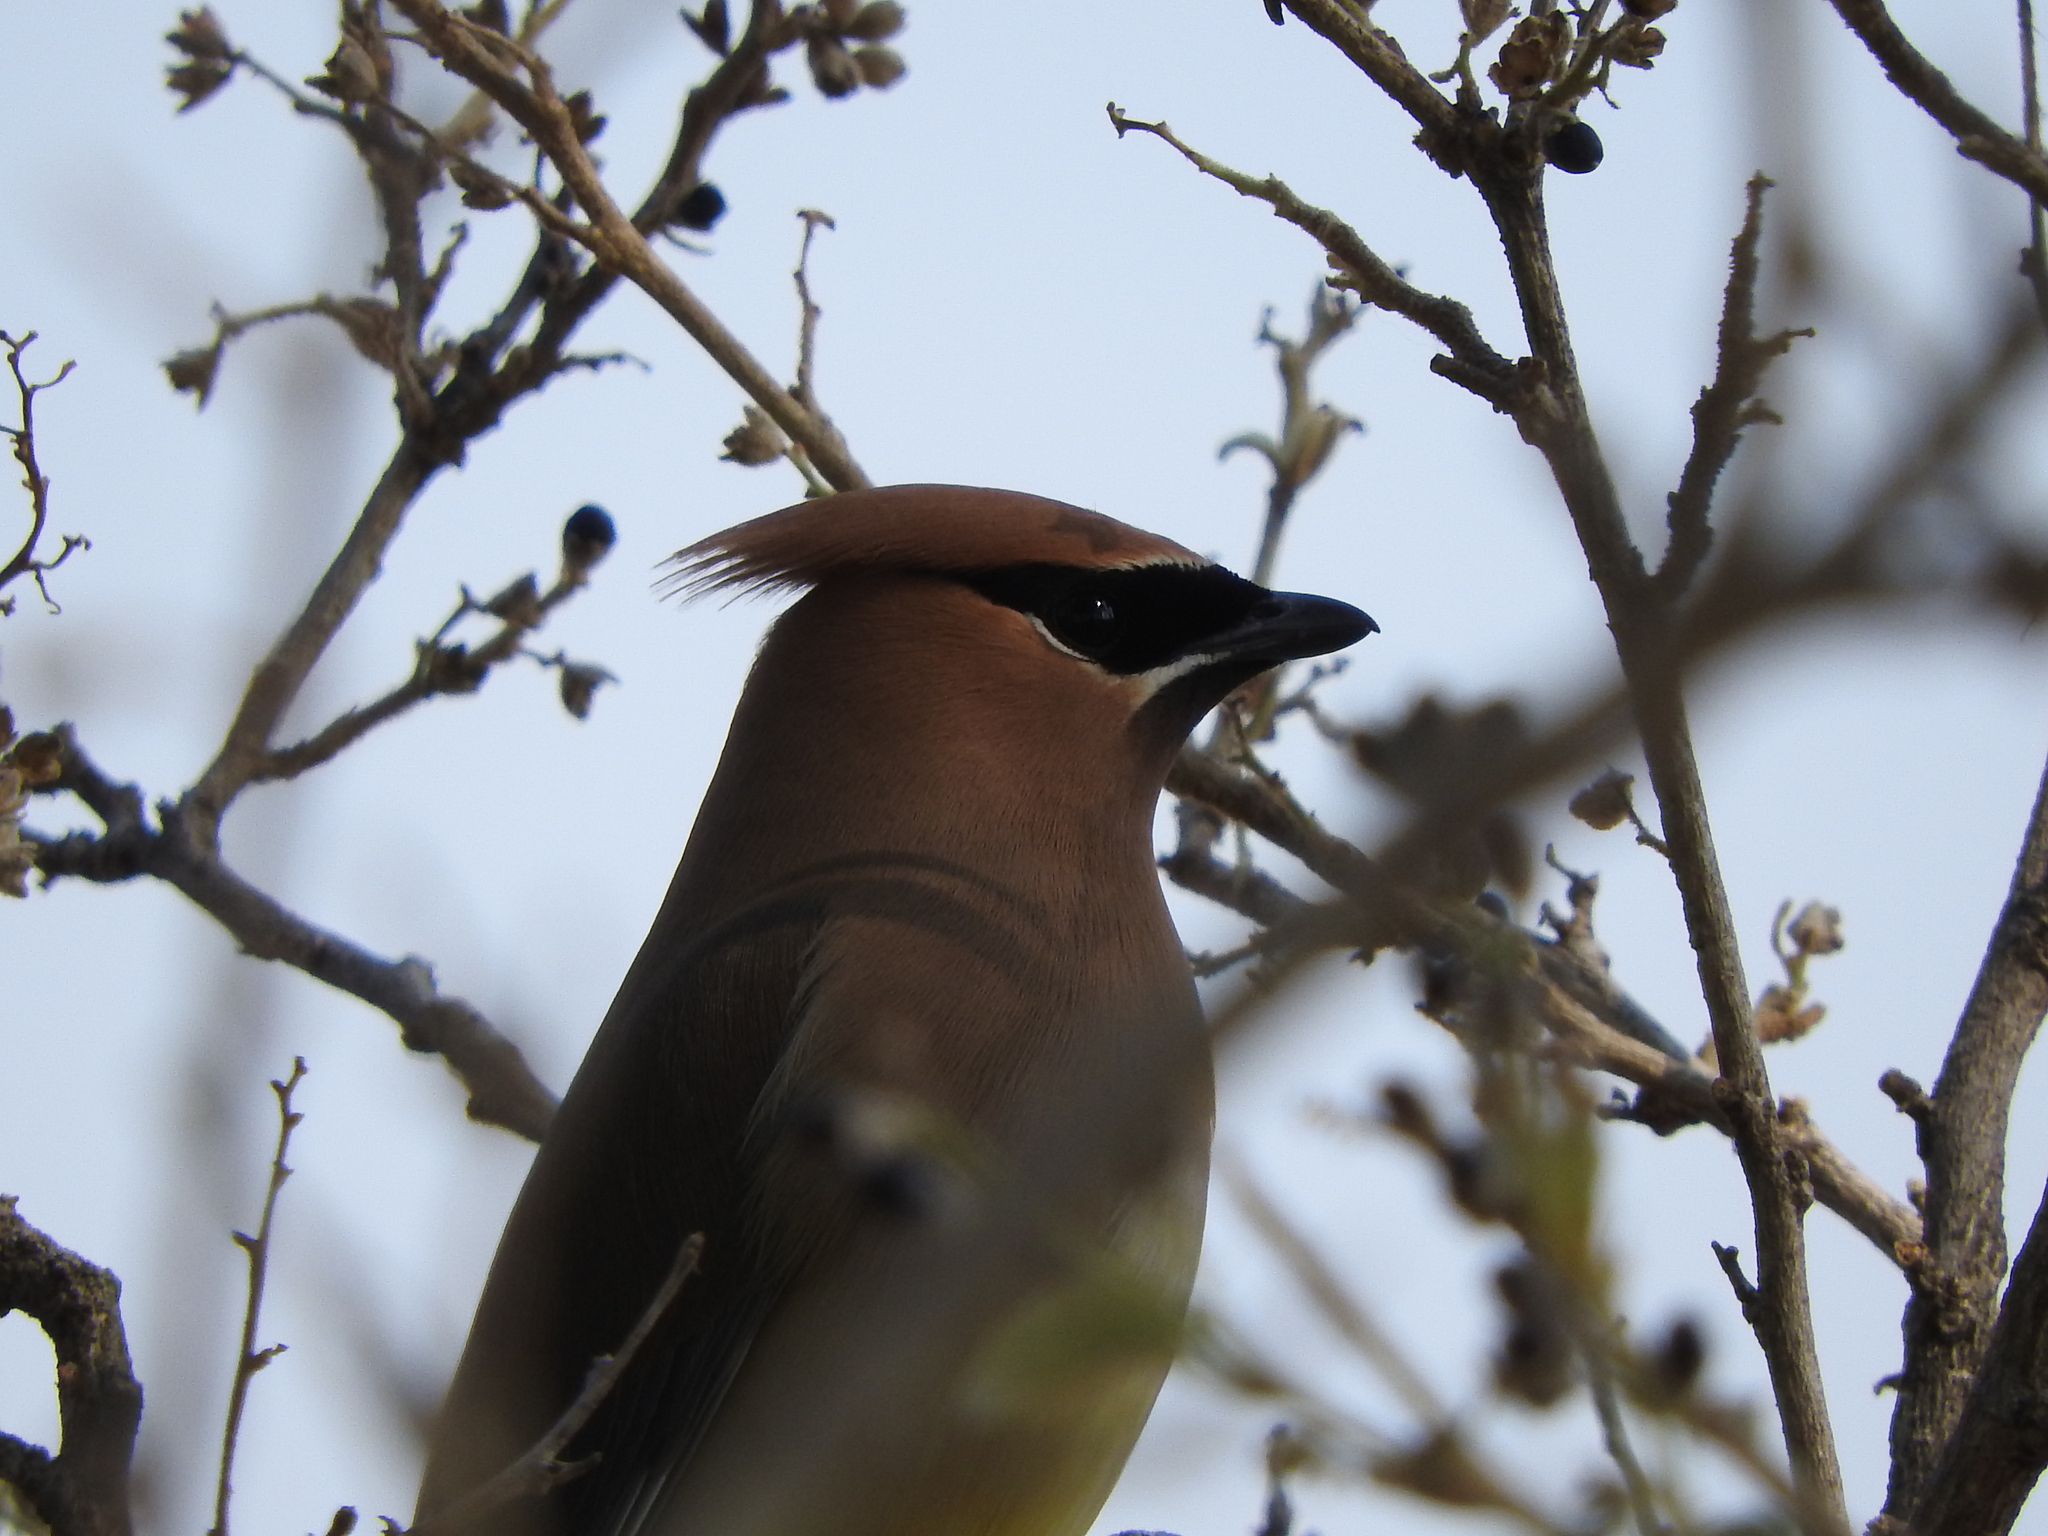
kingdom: Animalia
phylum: Chordata
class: Aves
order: Passeriformes
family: Bombycillidae
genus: Bombycilla
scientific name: Bombycilla cedrorum
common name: Cedar waxwing
